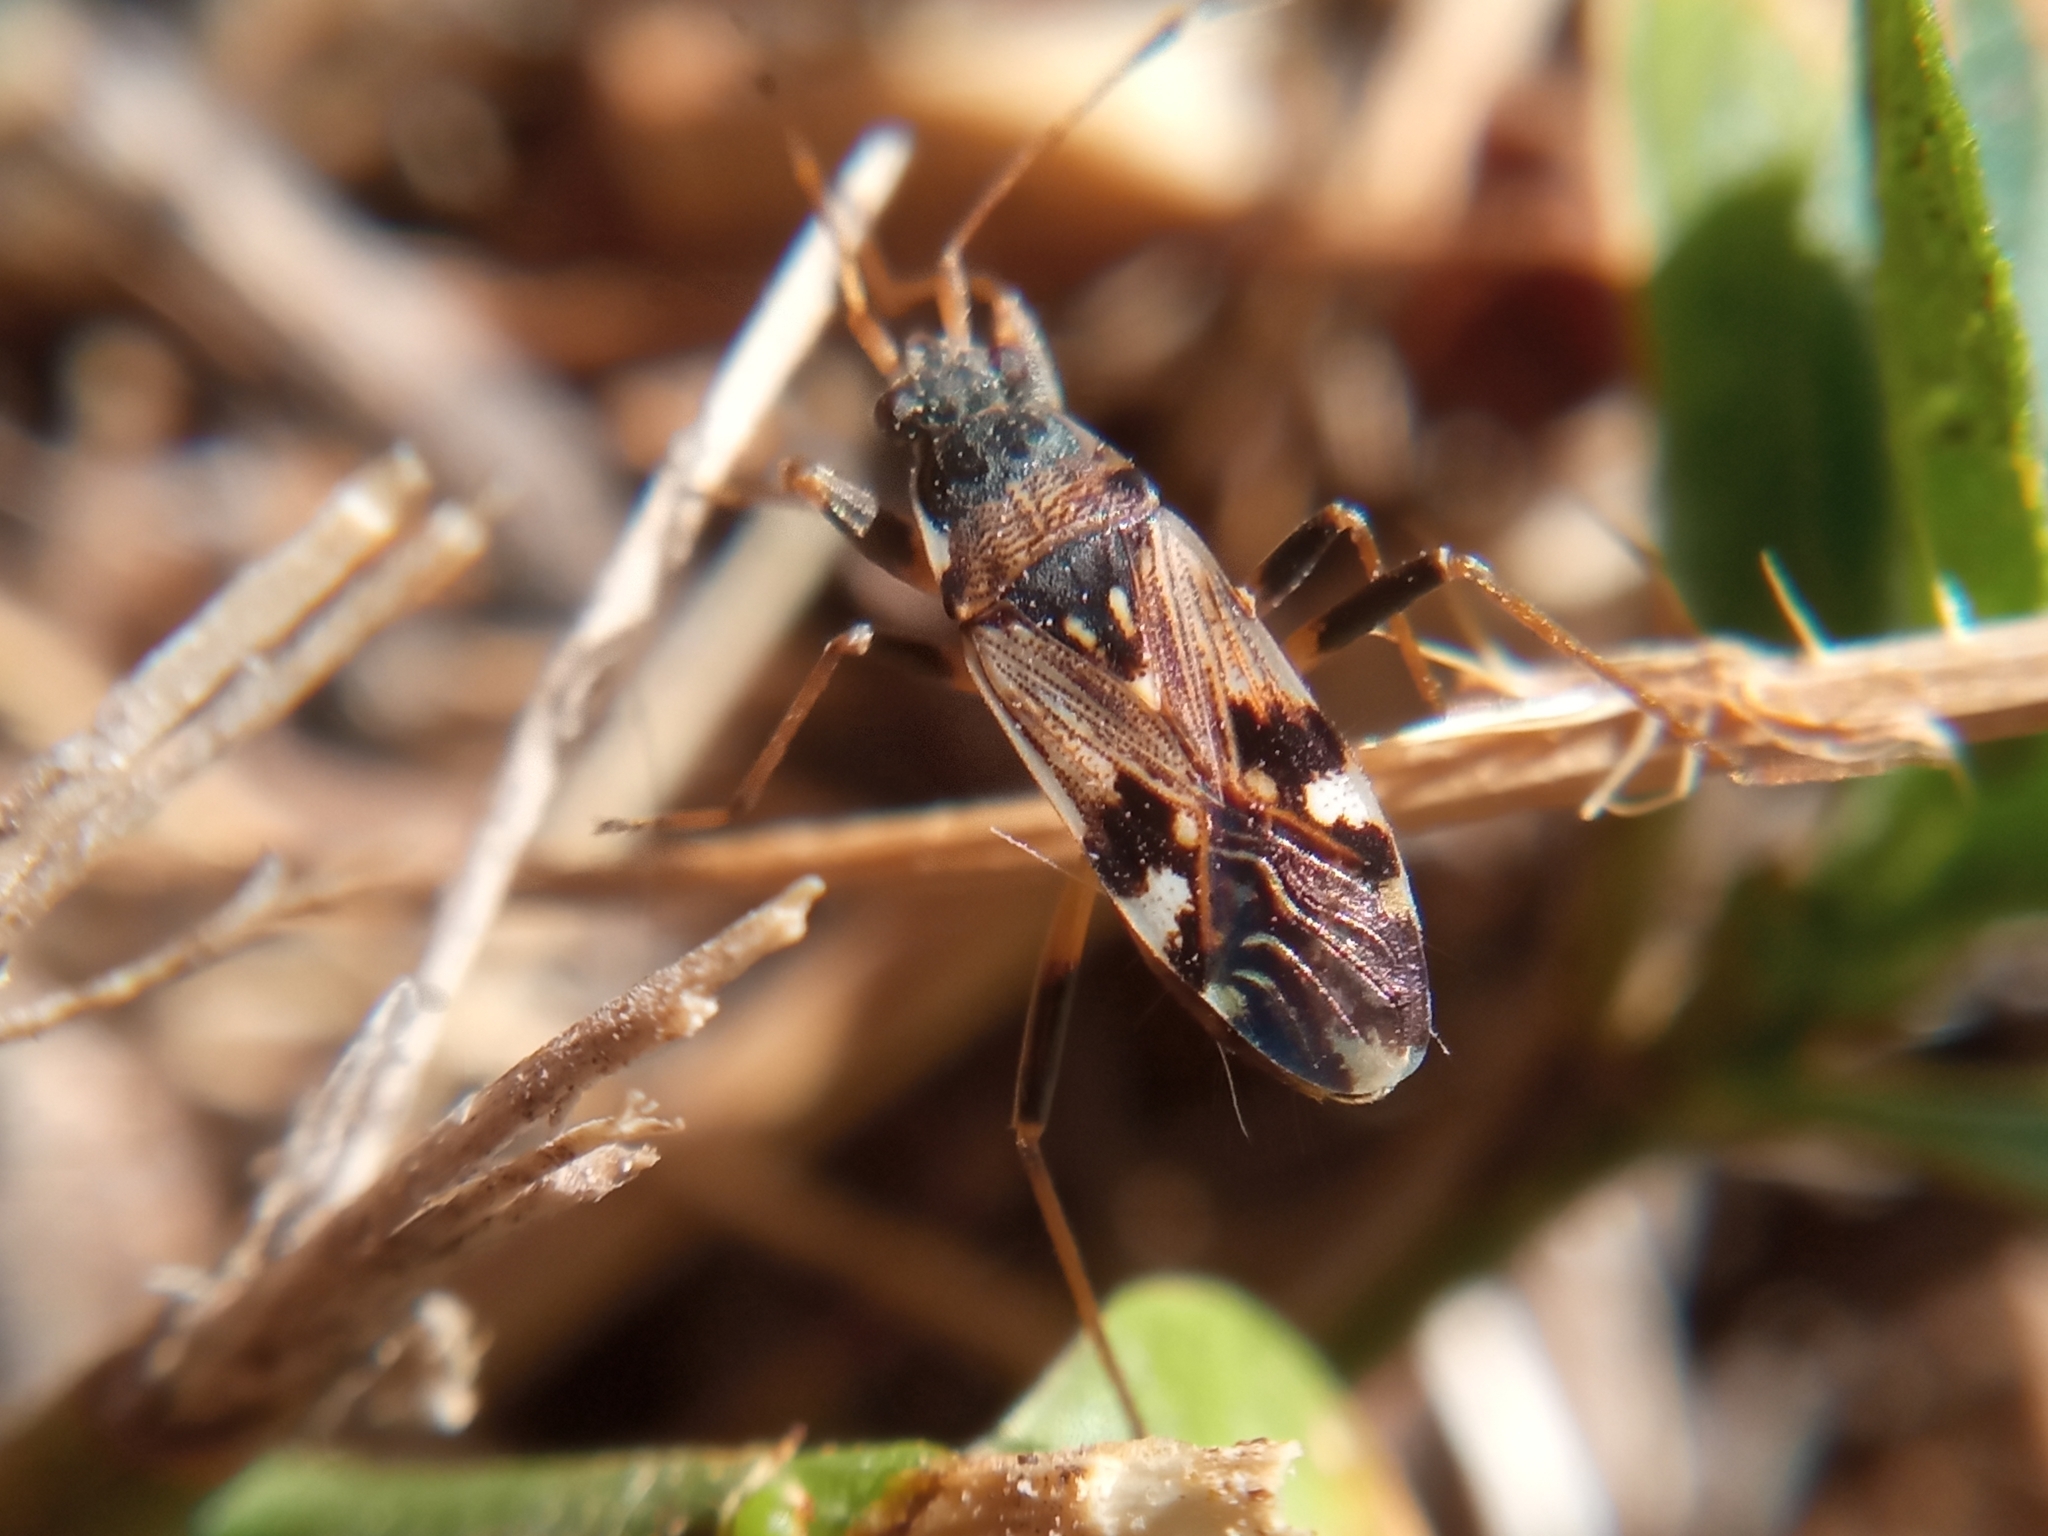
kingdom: Animalia
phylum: Arthropoda
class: Insecta
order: Hemiptera
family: Rhyparochromidae
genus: Beosus
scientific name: Beosus maritimus
